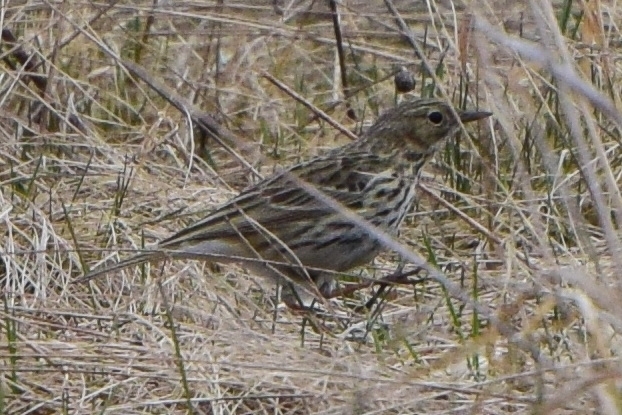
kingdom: Animalia
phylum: Chordata
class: Aves
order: Passeriformes
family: Motacillidae
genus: Anthus
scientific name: Anthus pratensis
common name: Meadow pipit
